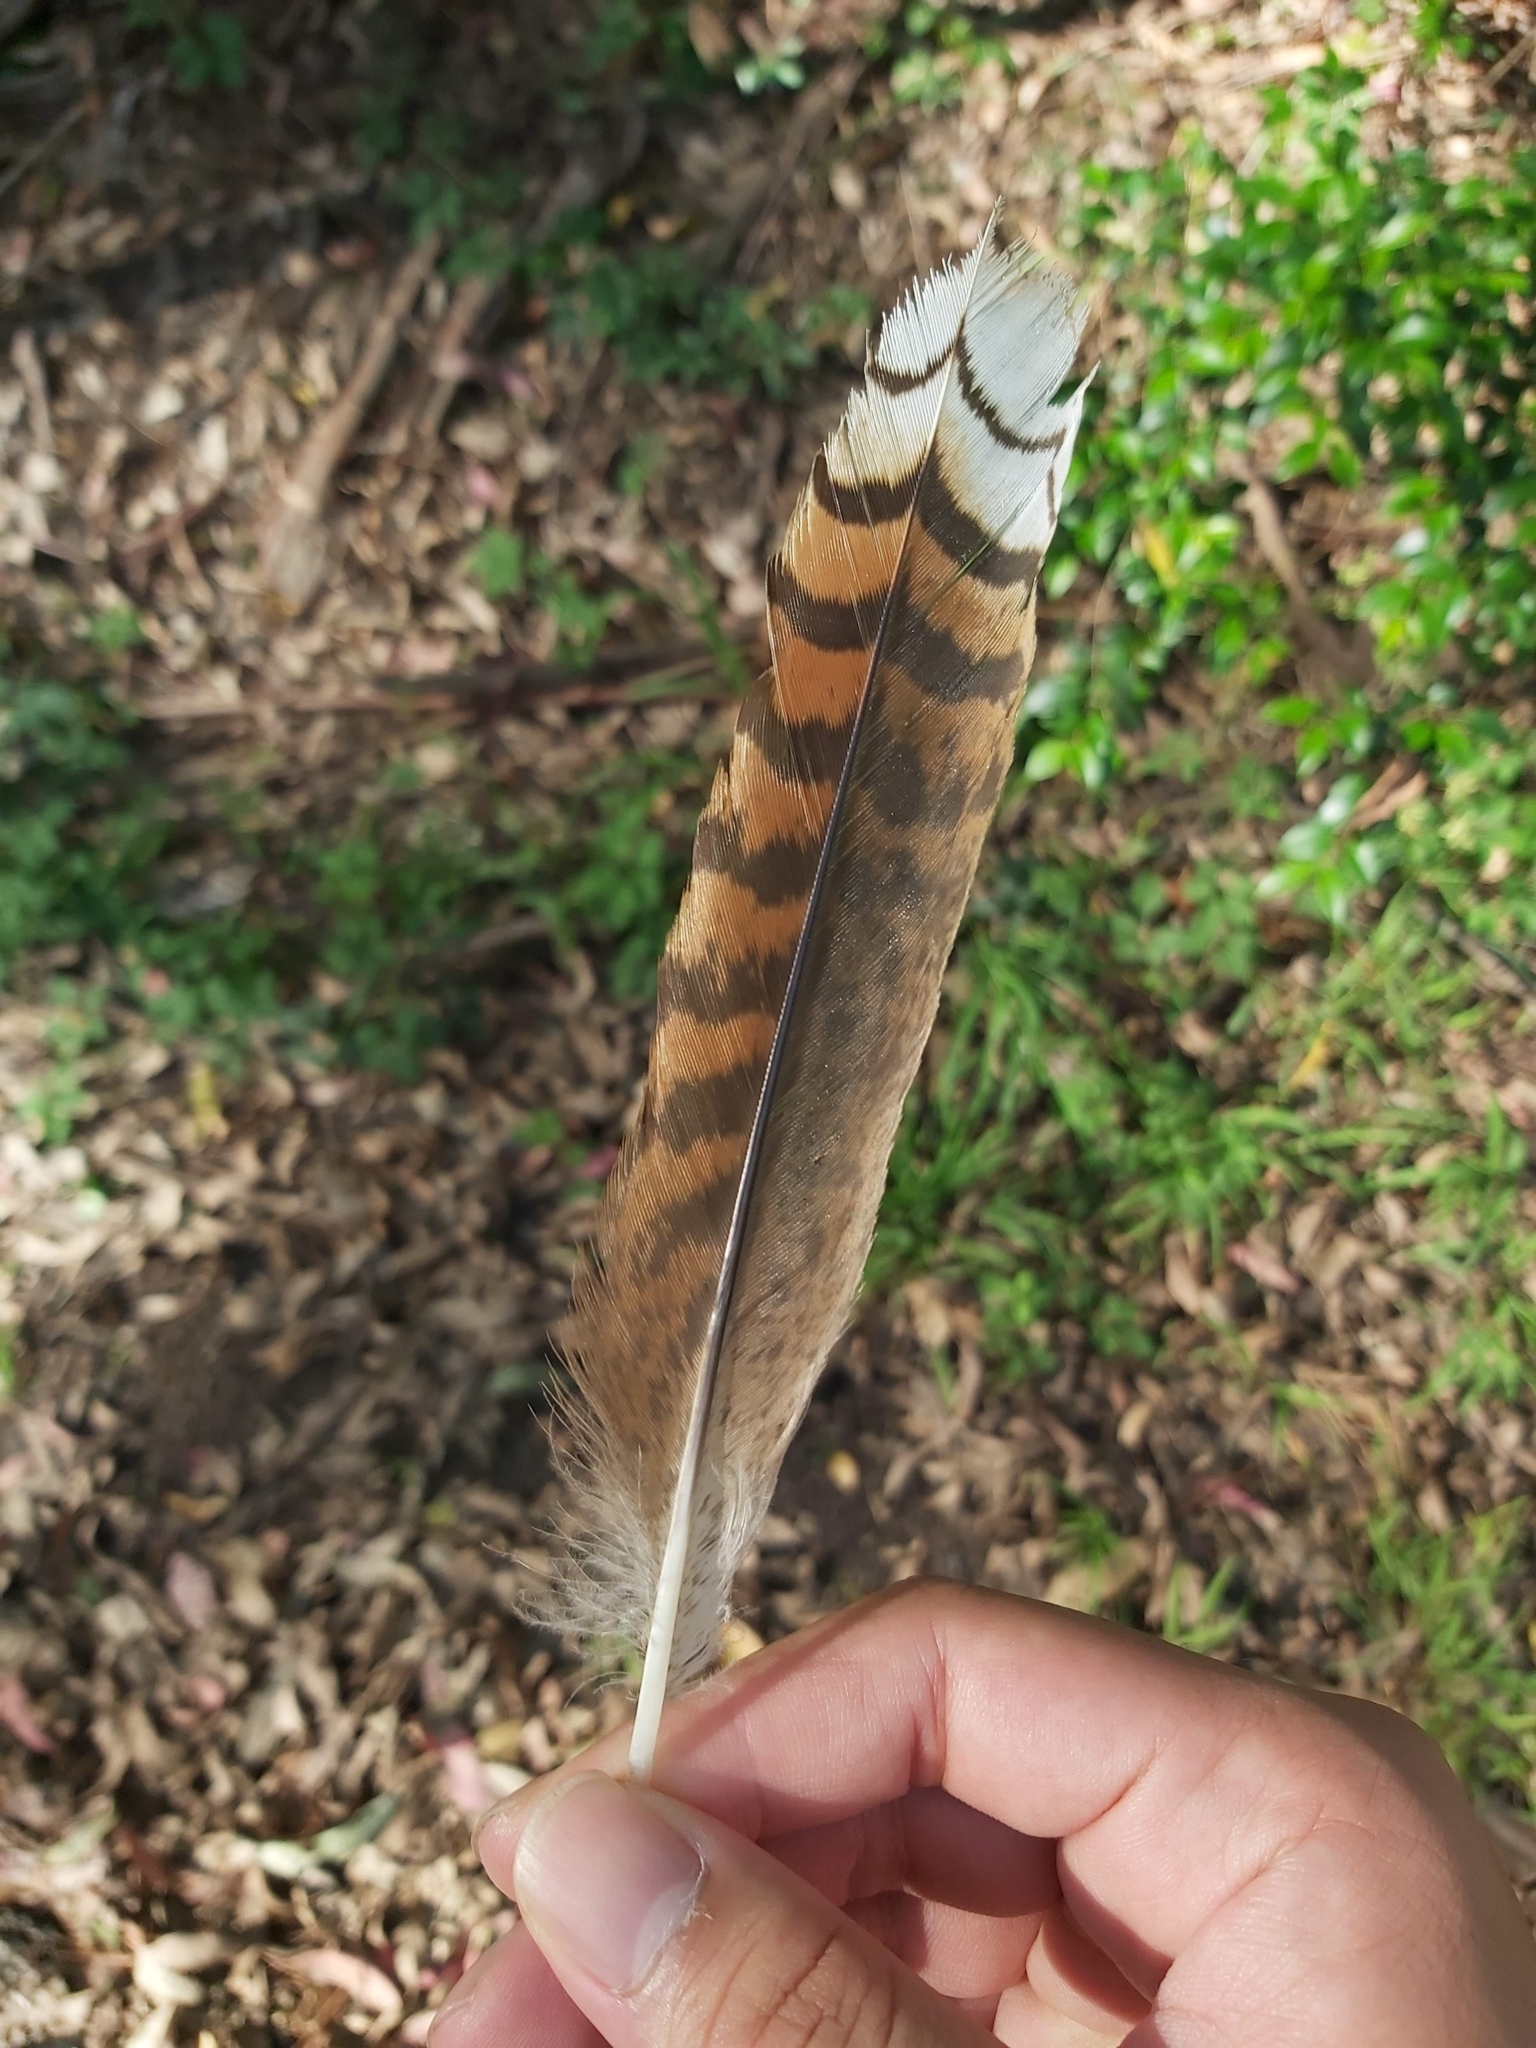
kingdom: Animalia
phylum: Chordata
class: Aves
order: Coraciiformes
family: Alcedinidae
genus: Dacelo
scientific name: Dacelo novaeguineae
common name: Laughing kookaburra
